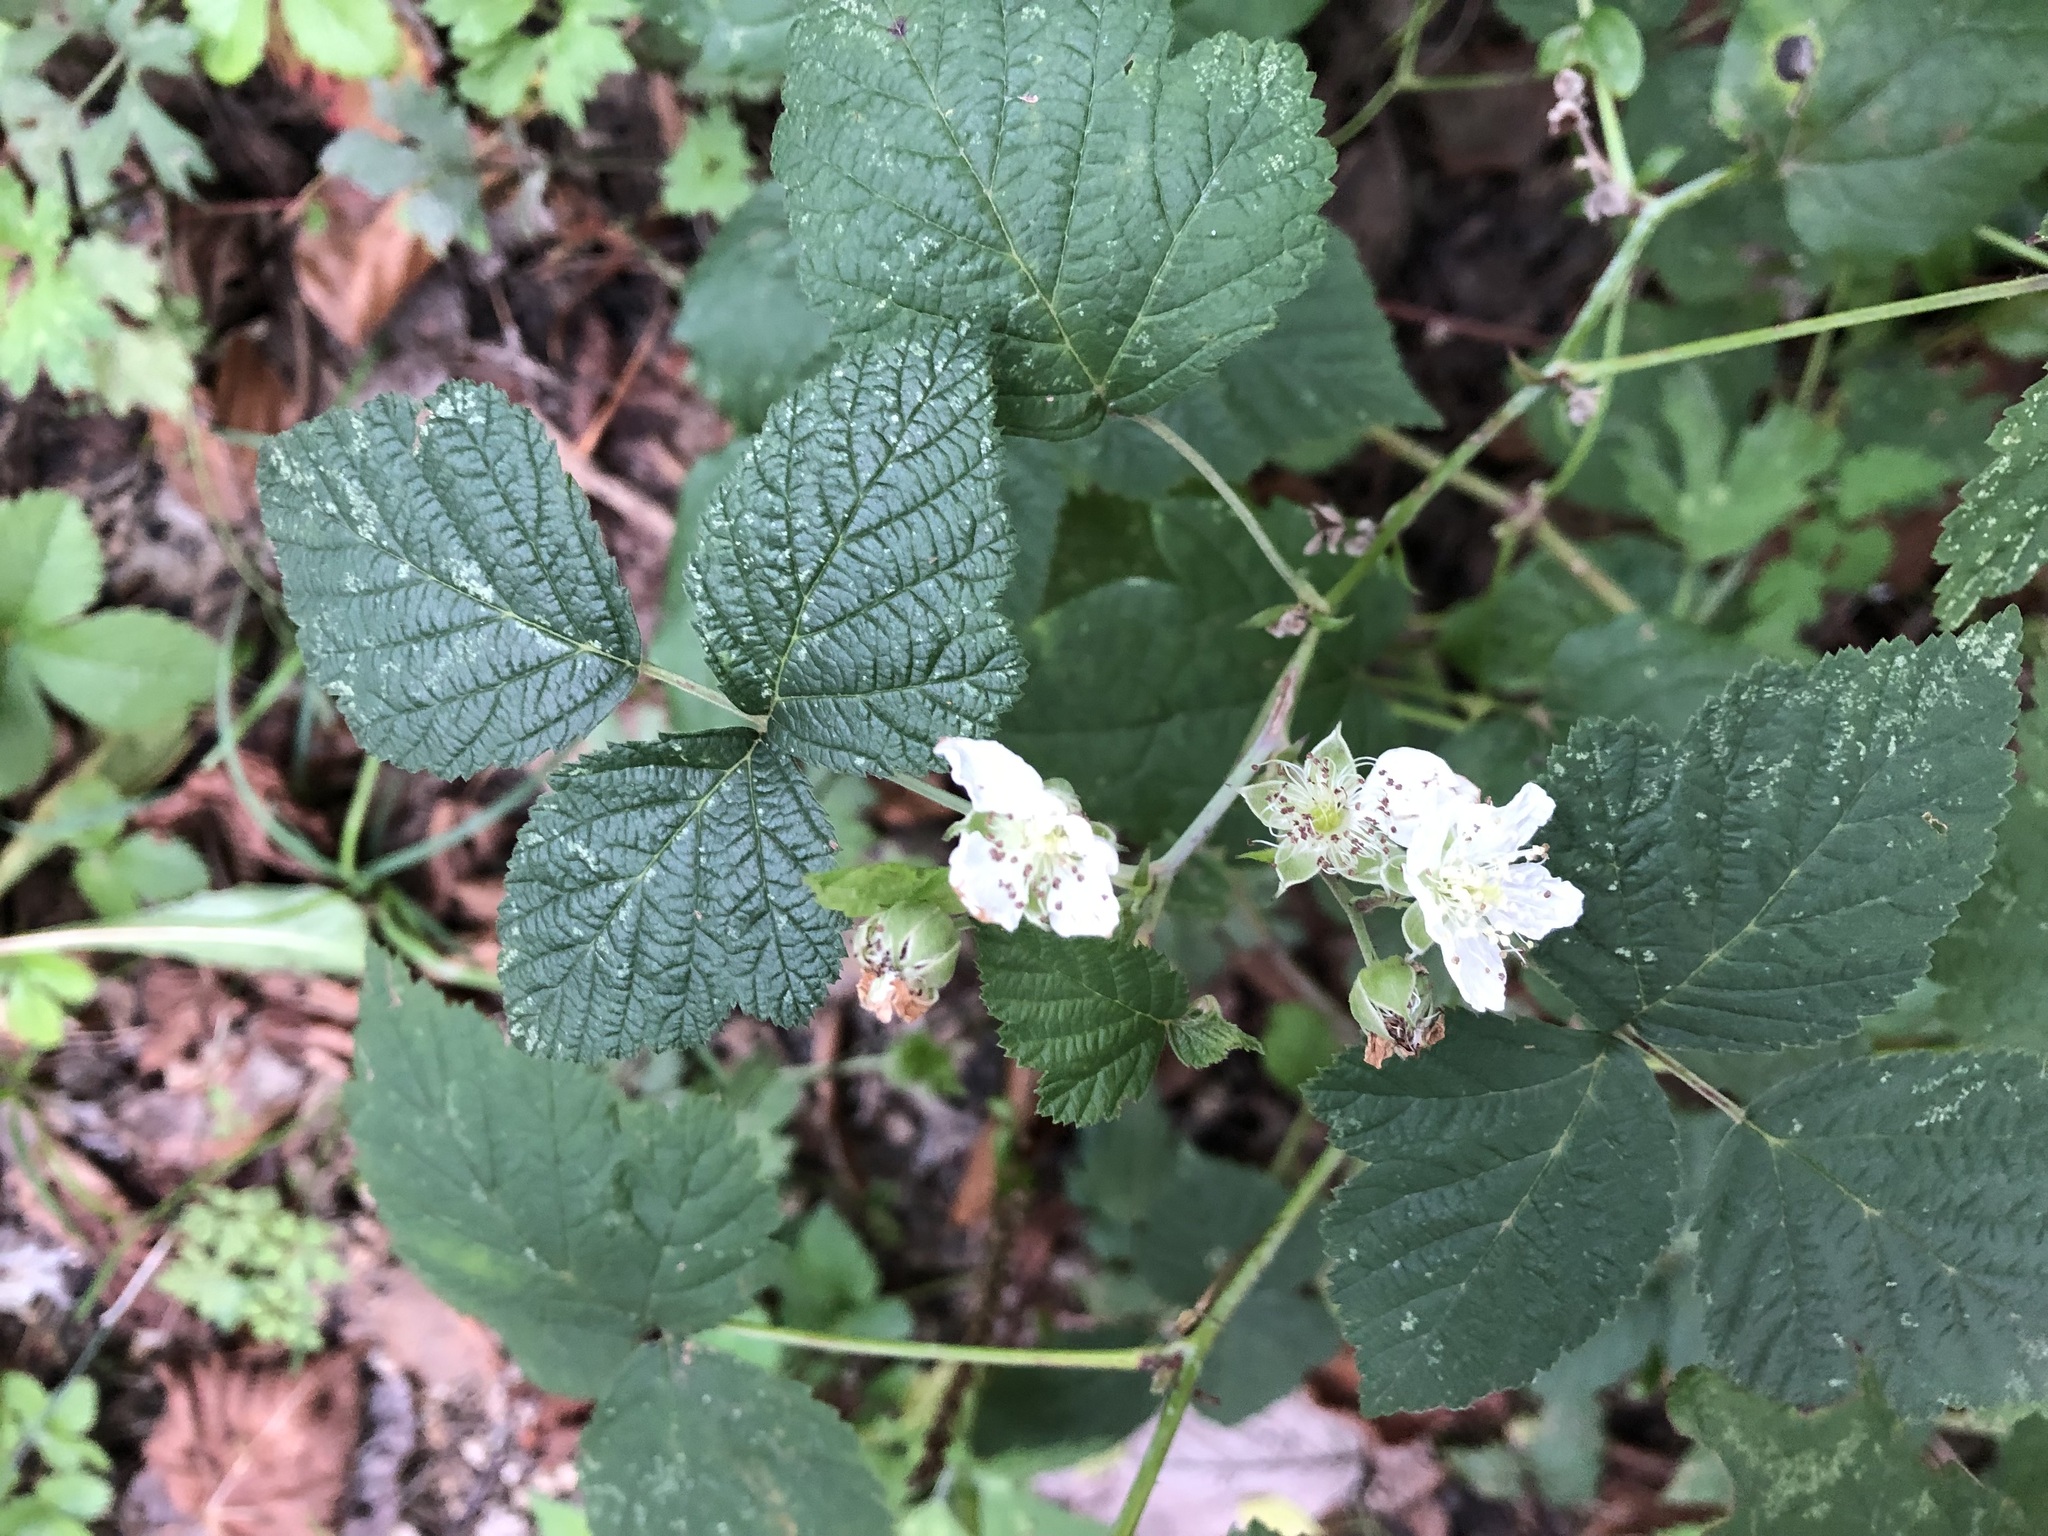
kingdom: Plantae
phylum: Tracheophyta
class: Magnoliopsida
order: Rosales
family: Rosaceae
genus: Rubus
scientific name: Rubus caesius
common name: Dewberry
